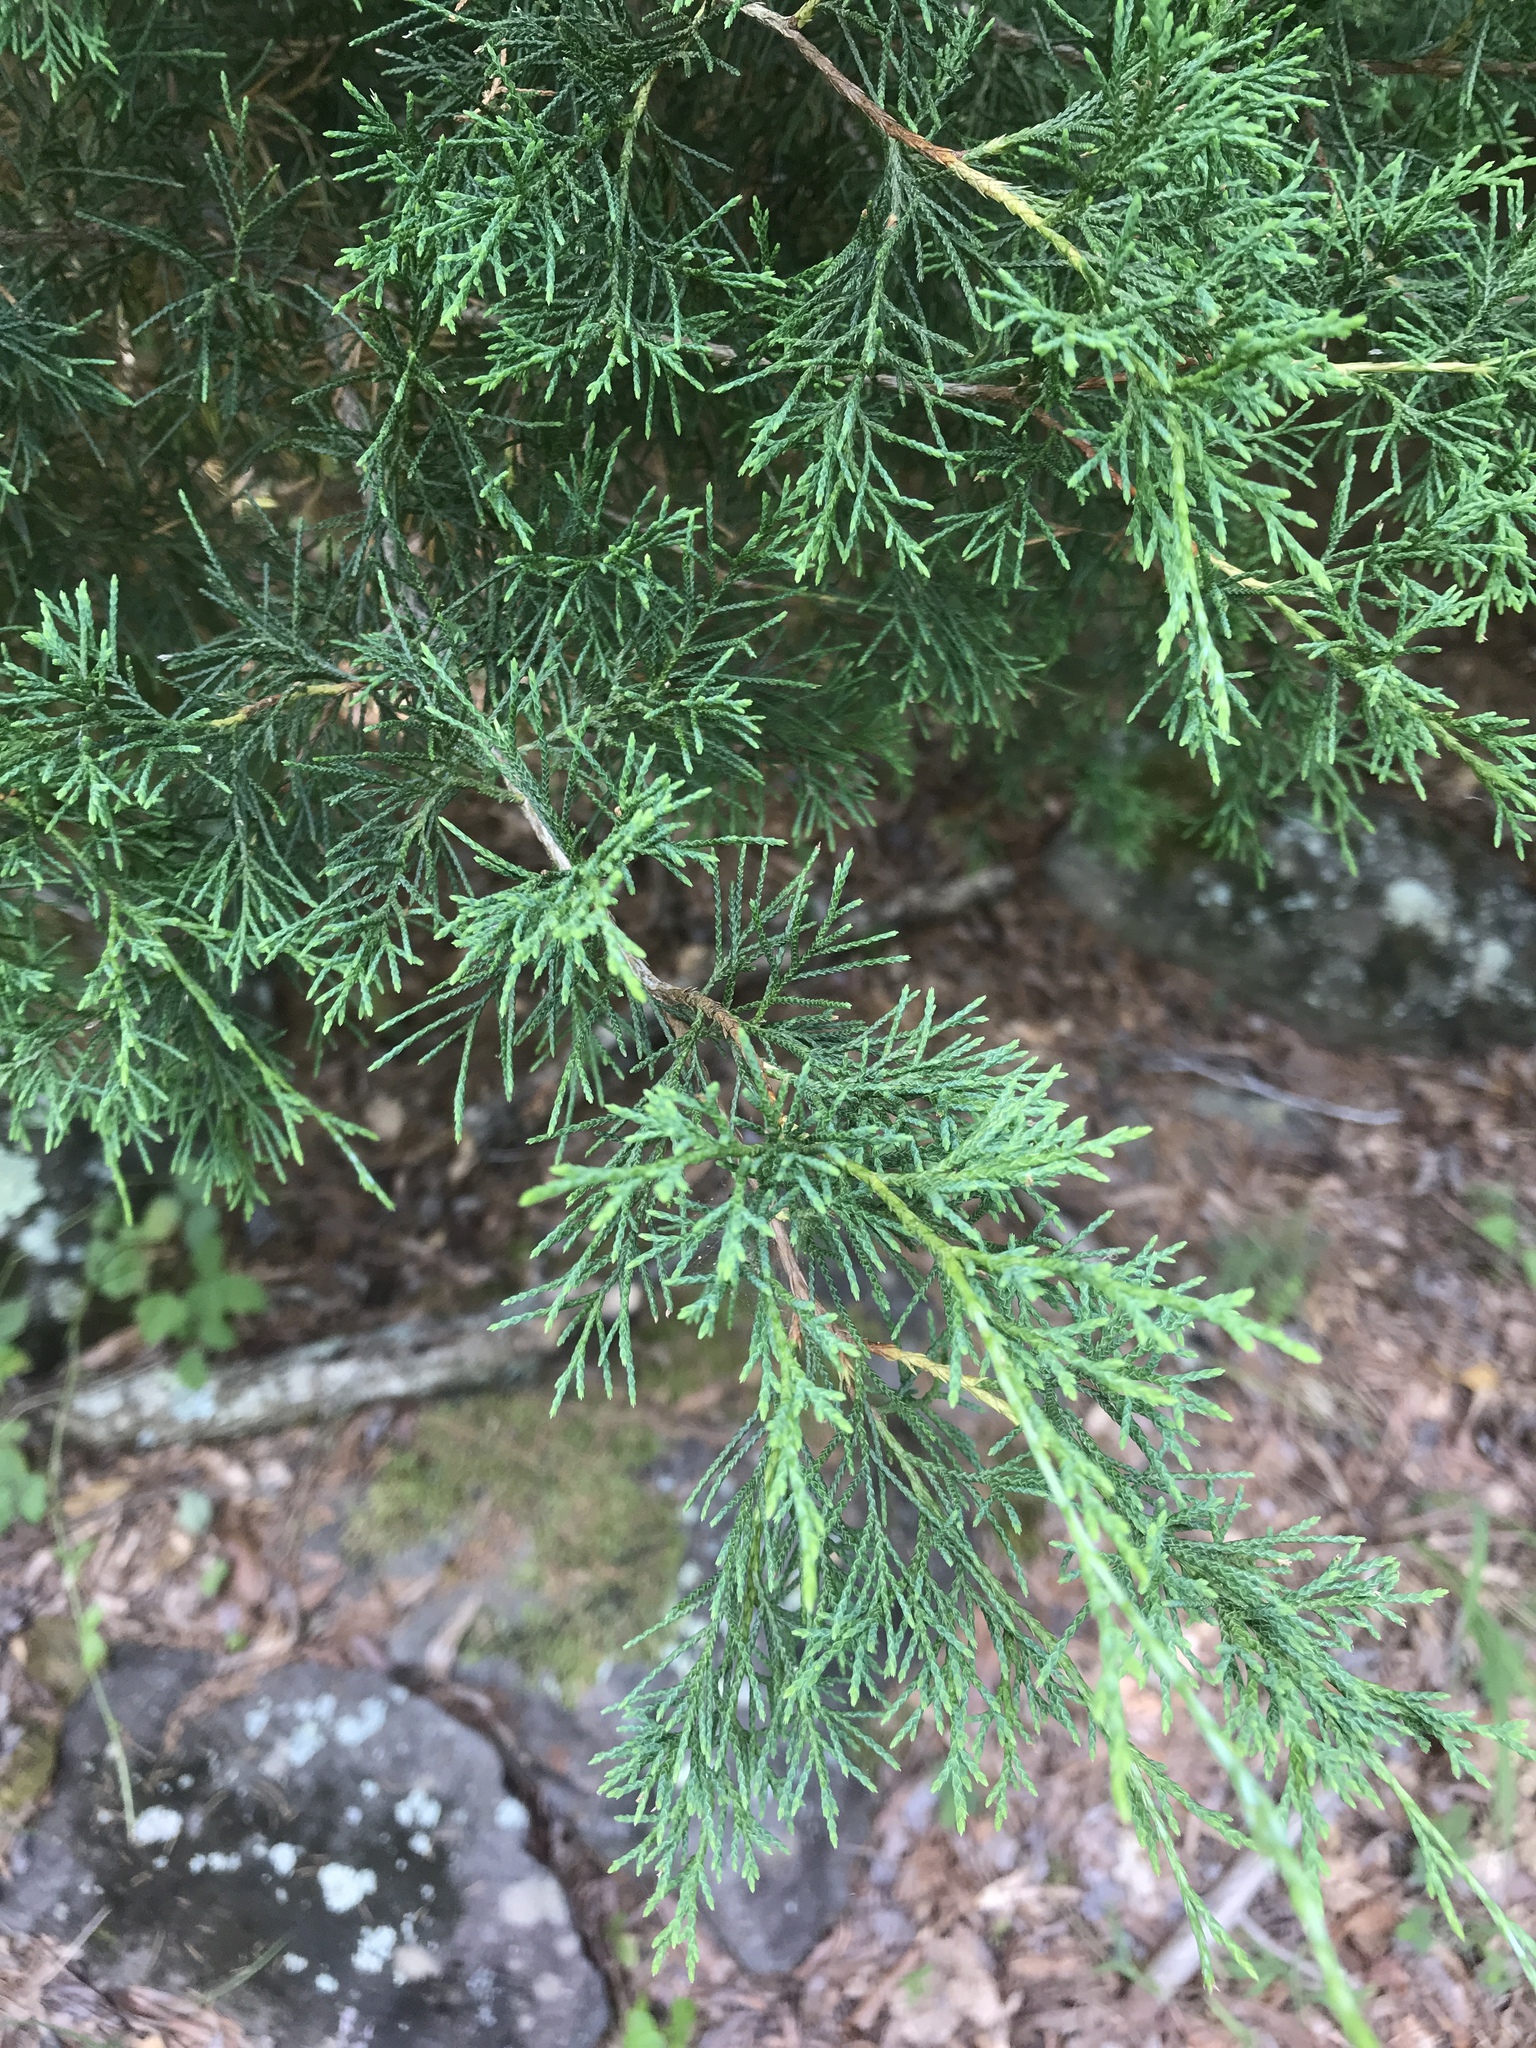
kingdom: Plantae
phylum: Tracheophyta
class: Pinopsida
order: Pinales
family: Cupressaceae
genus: Juniperus
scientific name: Juniperus virginiana
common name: Red juniper
